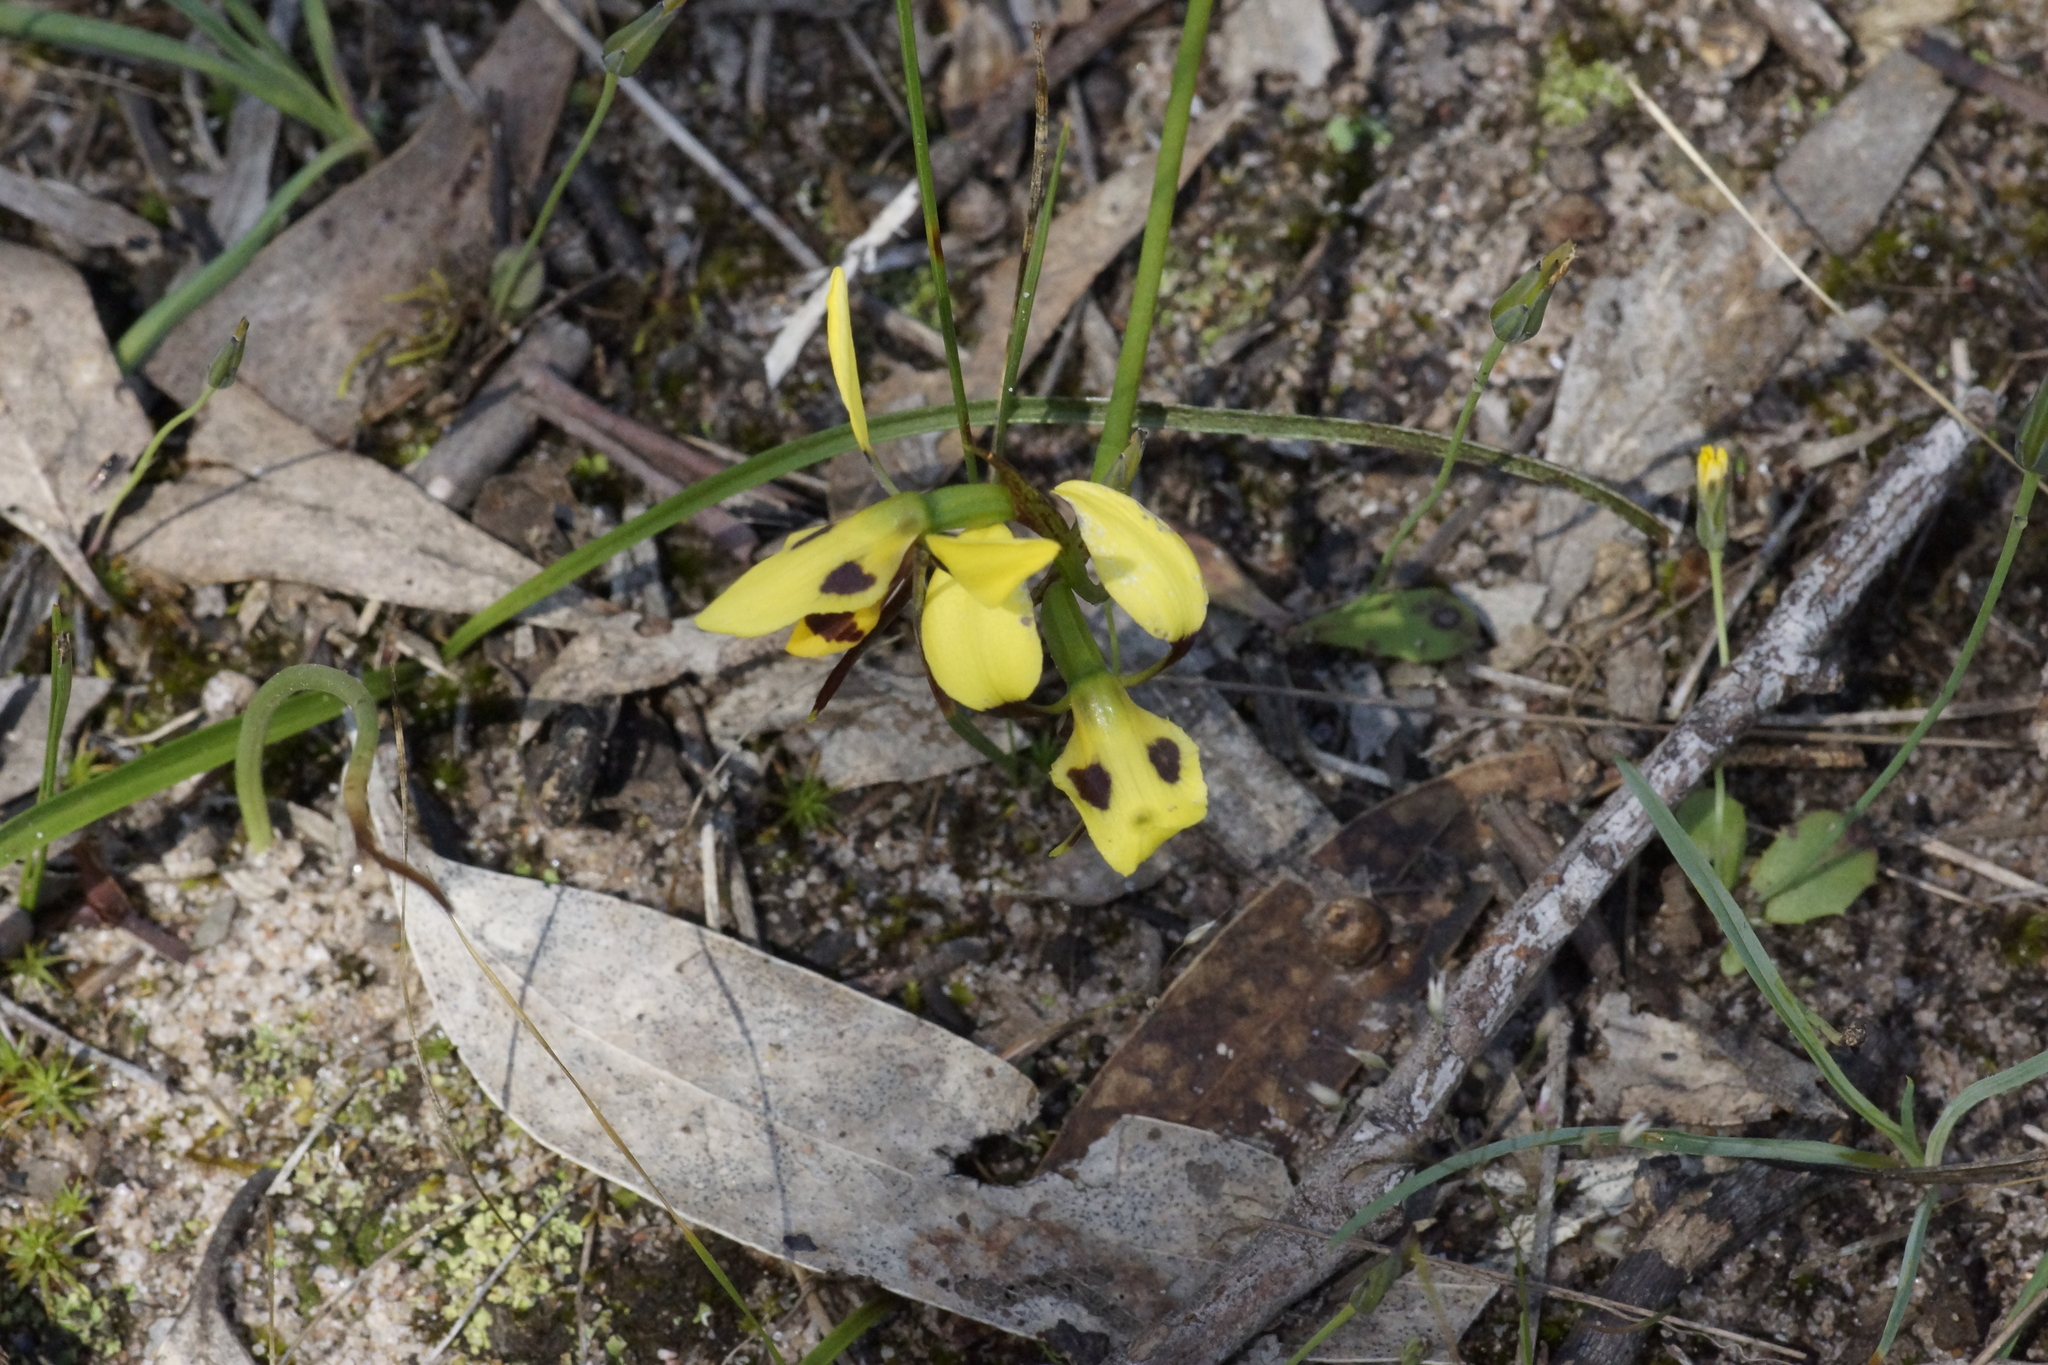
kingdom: Plantae
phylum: Tracheophyta
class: Liliopsida
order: Asparagales
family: Orchidaceae
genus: Diuris
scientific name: Diuris sulphurea
